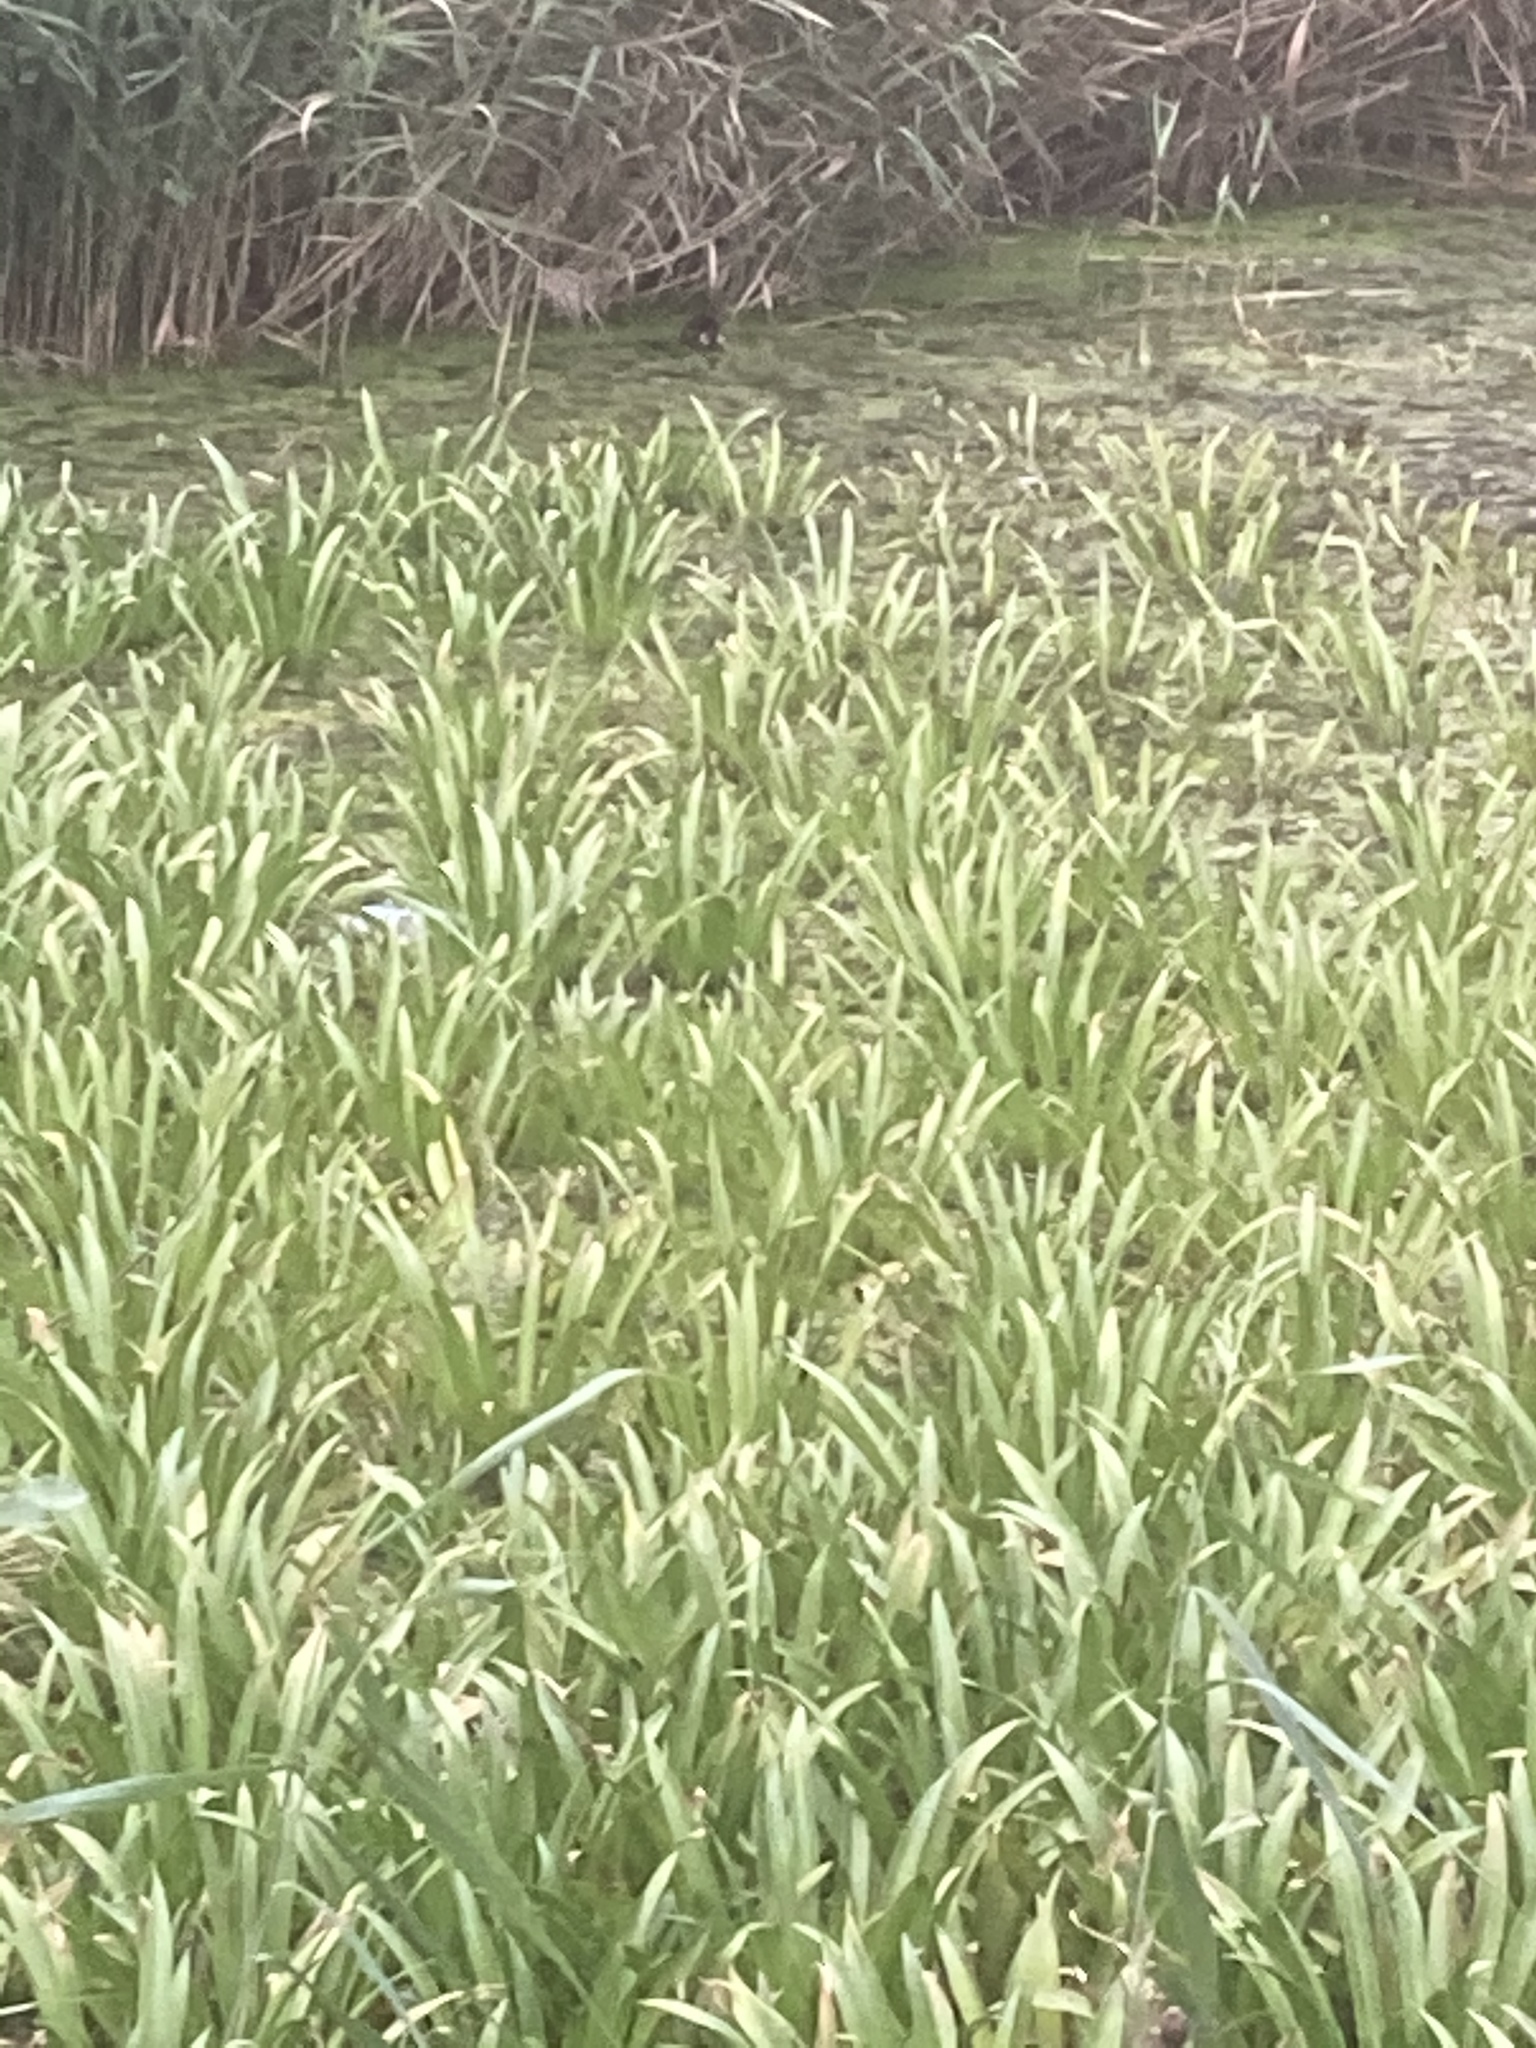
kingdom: Animalia
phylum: Chordata
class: Aves
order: Gruiformes
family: Rallidae
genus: Gallinula
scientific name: Gallinula chloropus
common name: Common moorhen
